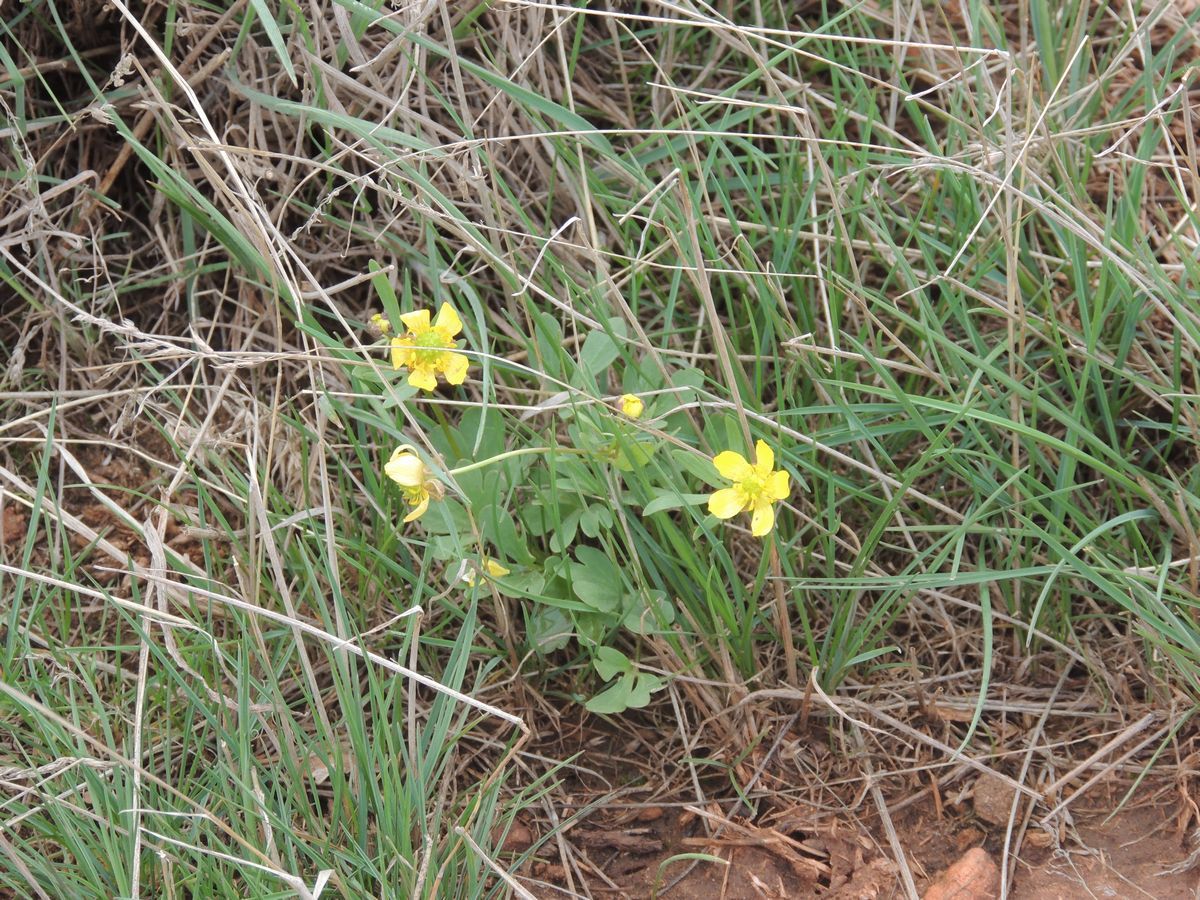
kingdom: Plantae
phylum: Tracheophyta
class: Magnoliopsida
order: Ranunculales
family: Ranunculaceae
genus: Ranunculus
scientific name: Ranunculus polyrhizos
